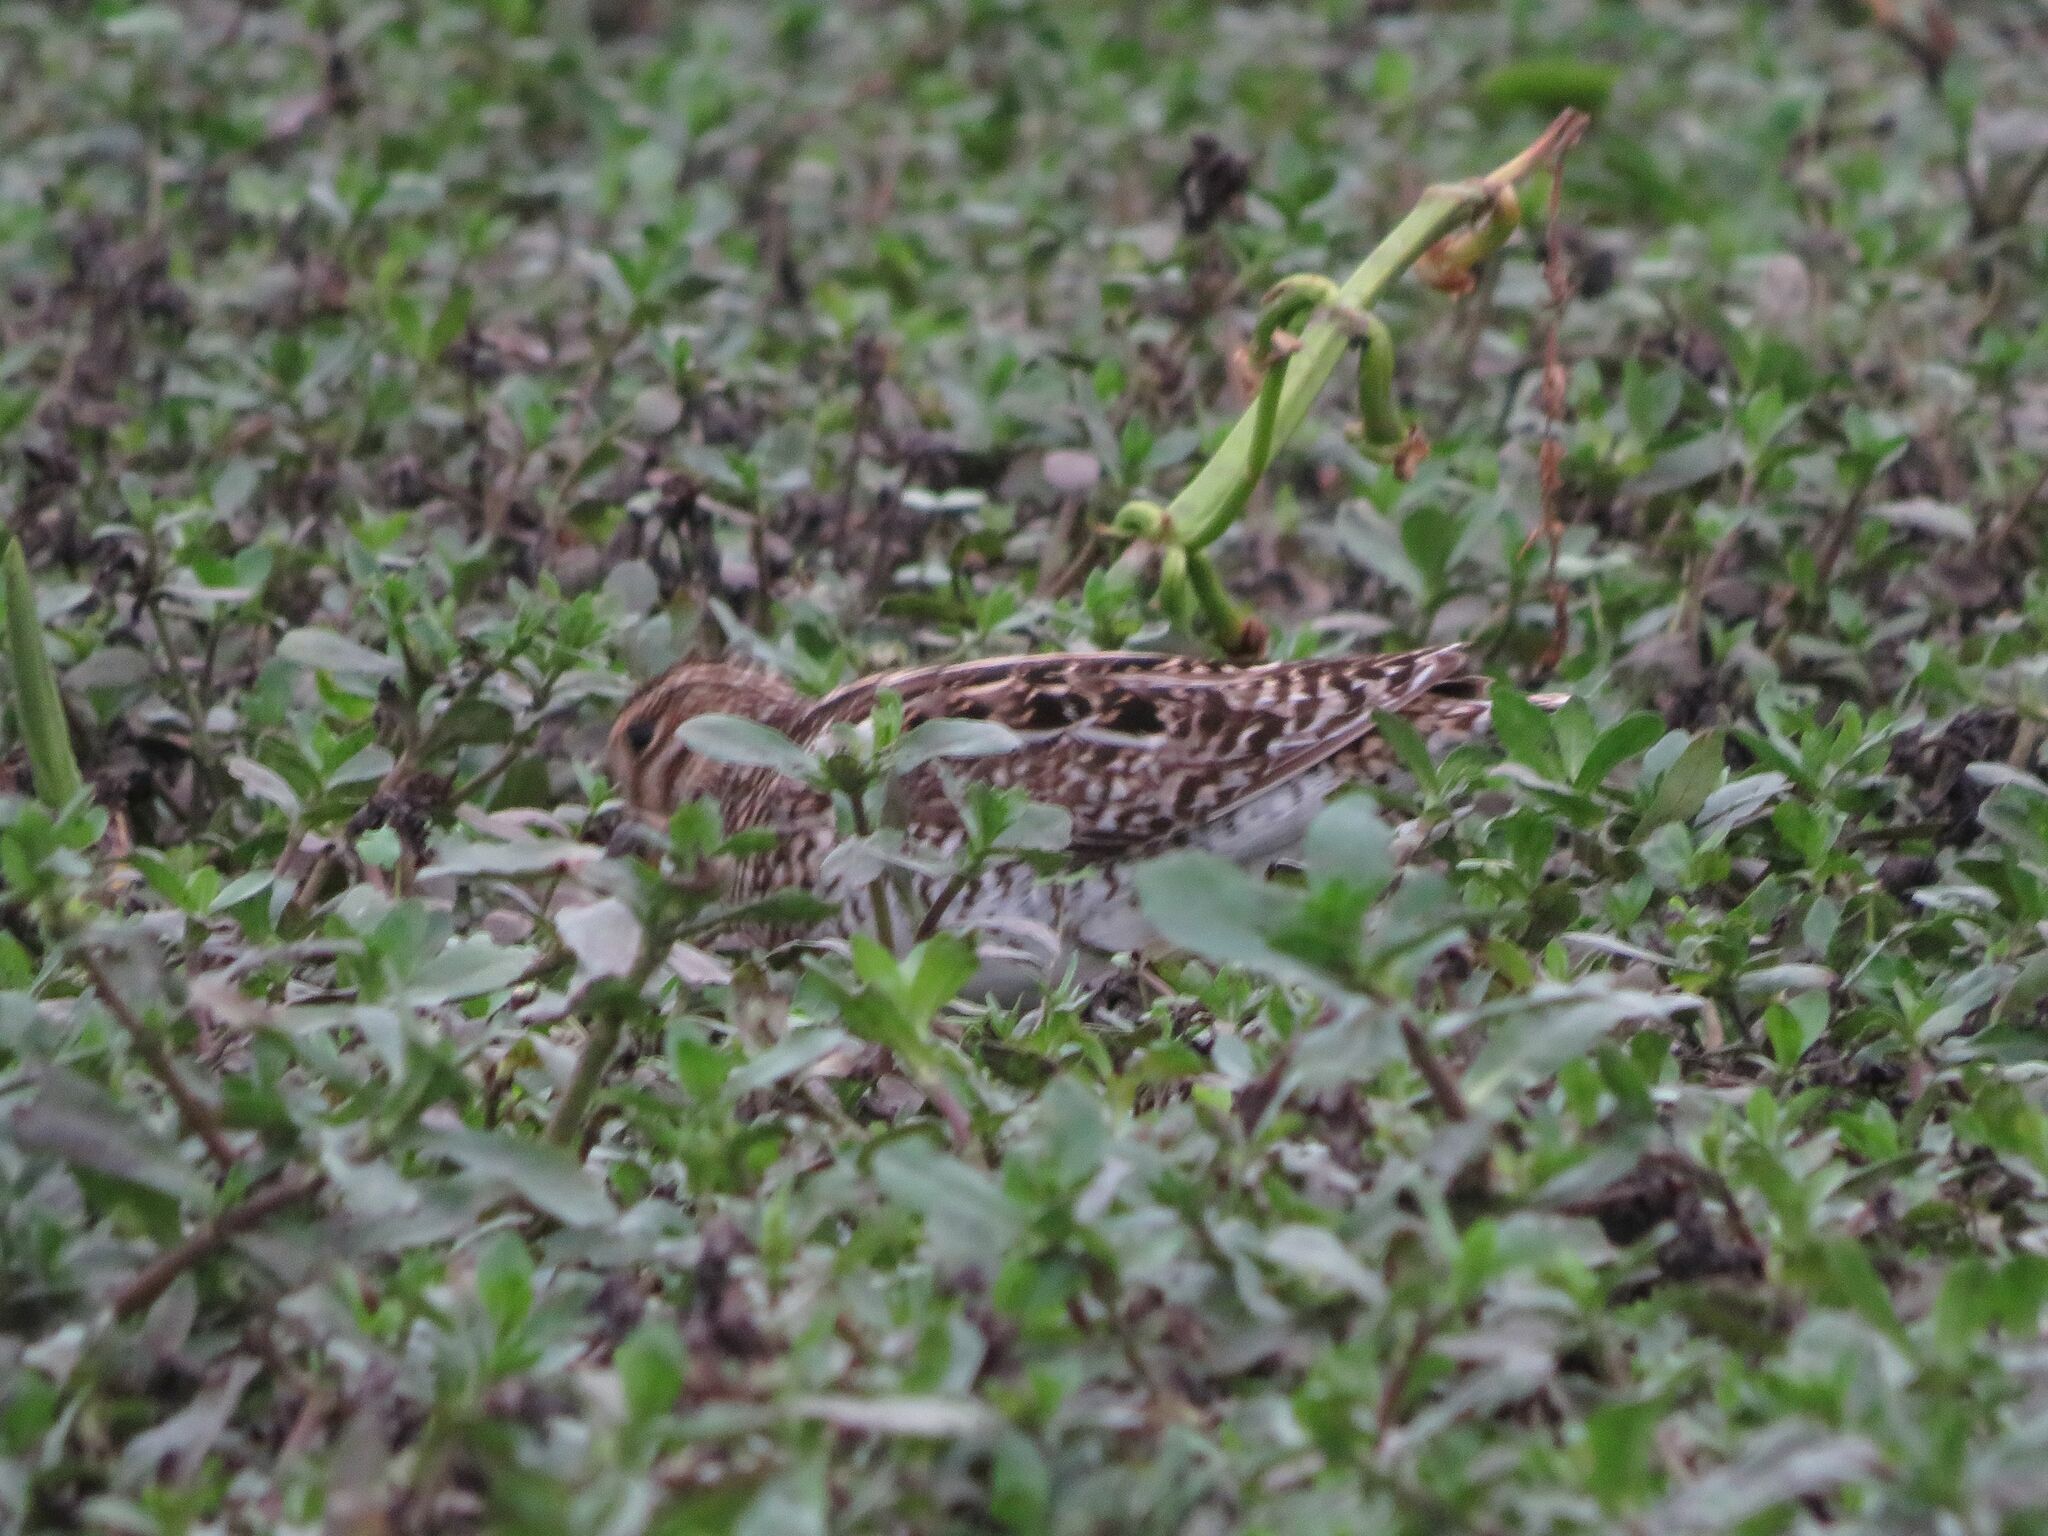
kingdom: Animalia
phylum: Chordata
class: Aves
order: Charadriiformes
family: Scolopacidae
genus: Gallinago
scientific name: Gallinago paraguaiae
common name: South american snipe
